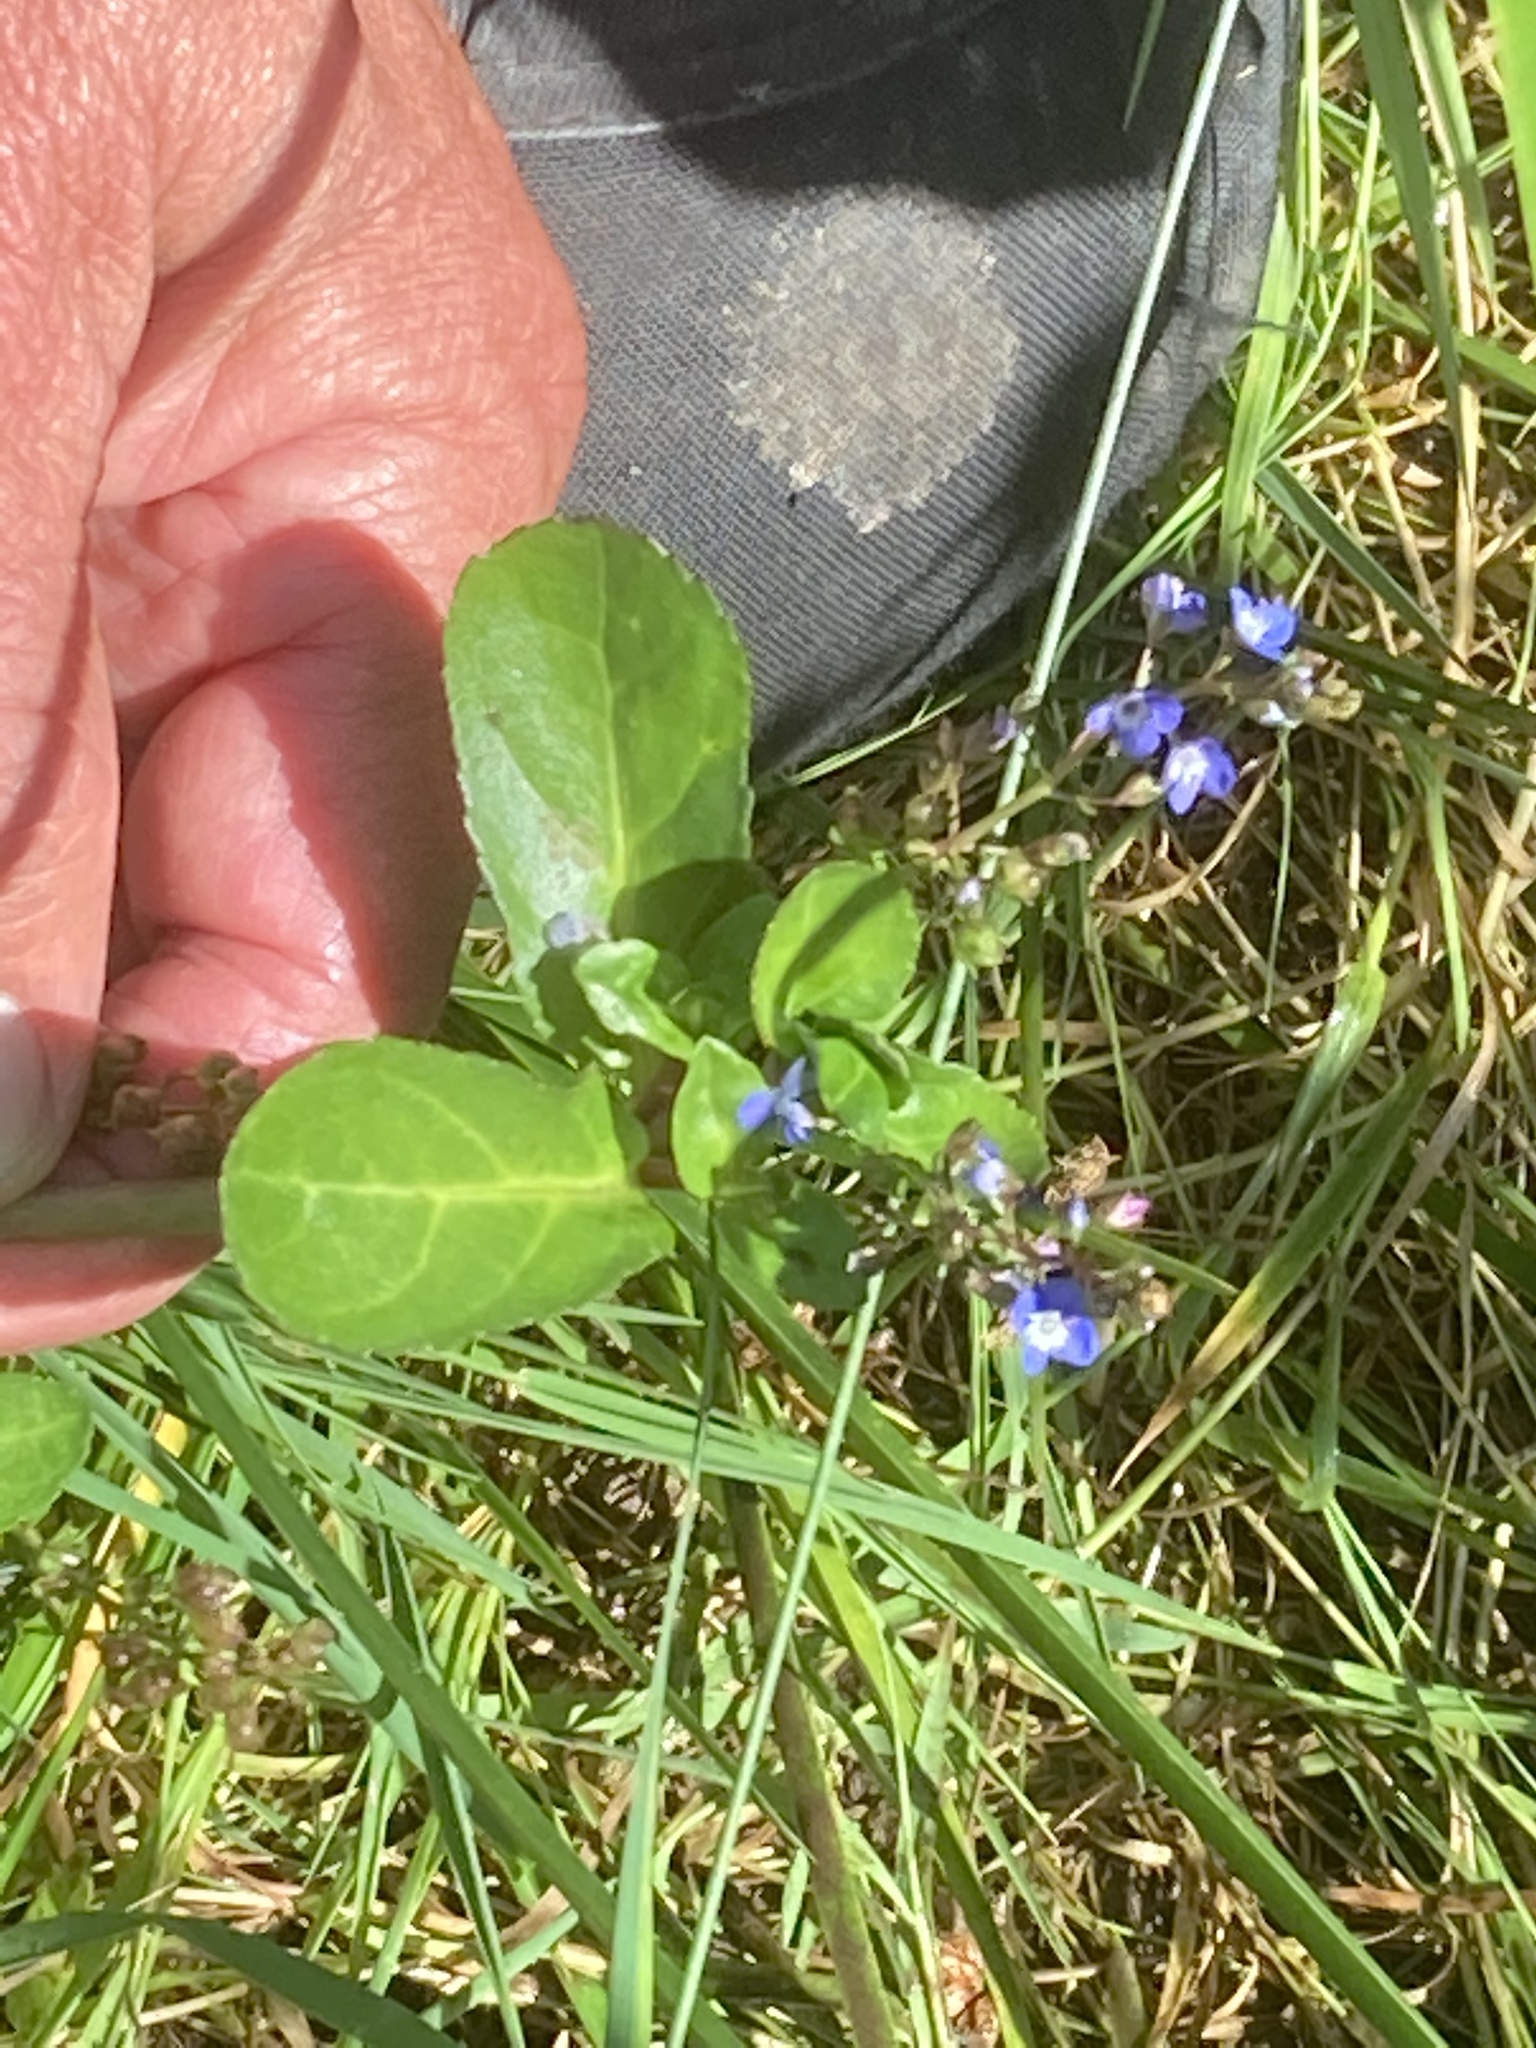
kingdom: Plantae
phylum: Tracheophyta
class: Magnoliopsida
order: Lamiales
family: Plantaginaceae
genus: Veronica
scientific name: Veronica beccabunga
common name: Brooklime
